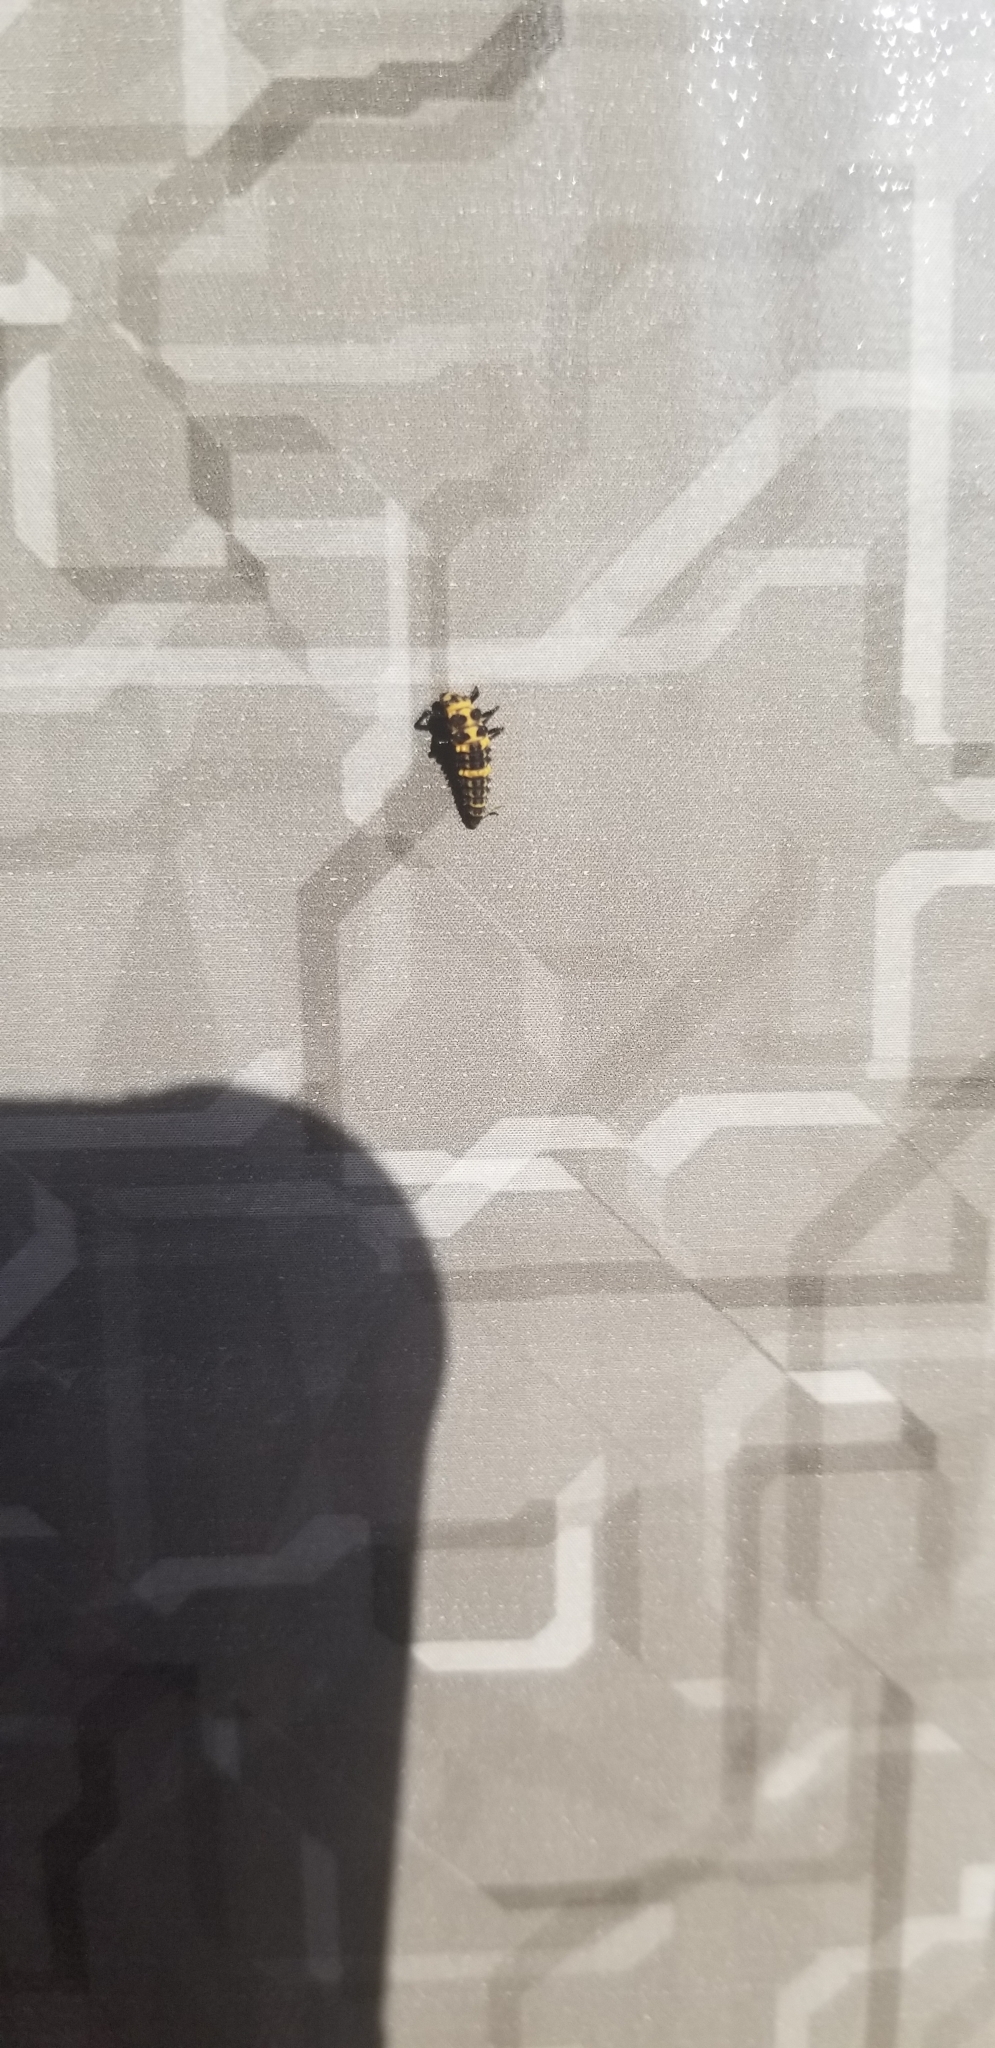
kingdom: Animalia
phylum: Arthropoda
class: Insecta
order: Coleoptera
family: Coccinellidae
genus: Coleomegilla
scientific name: Coleomegilla maculata
